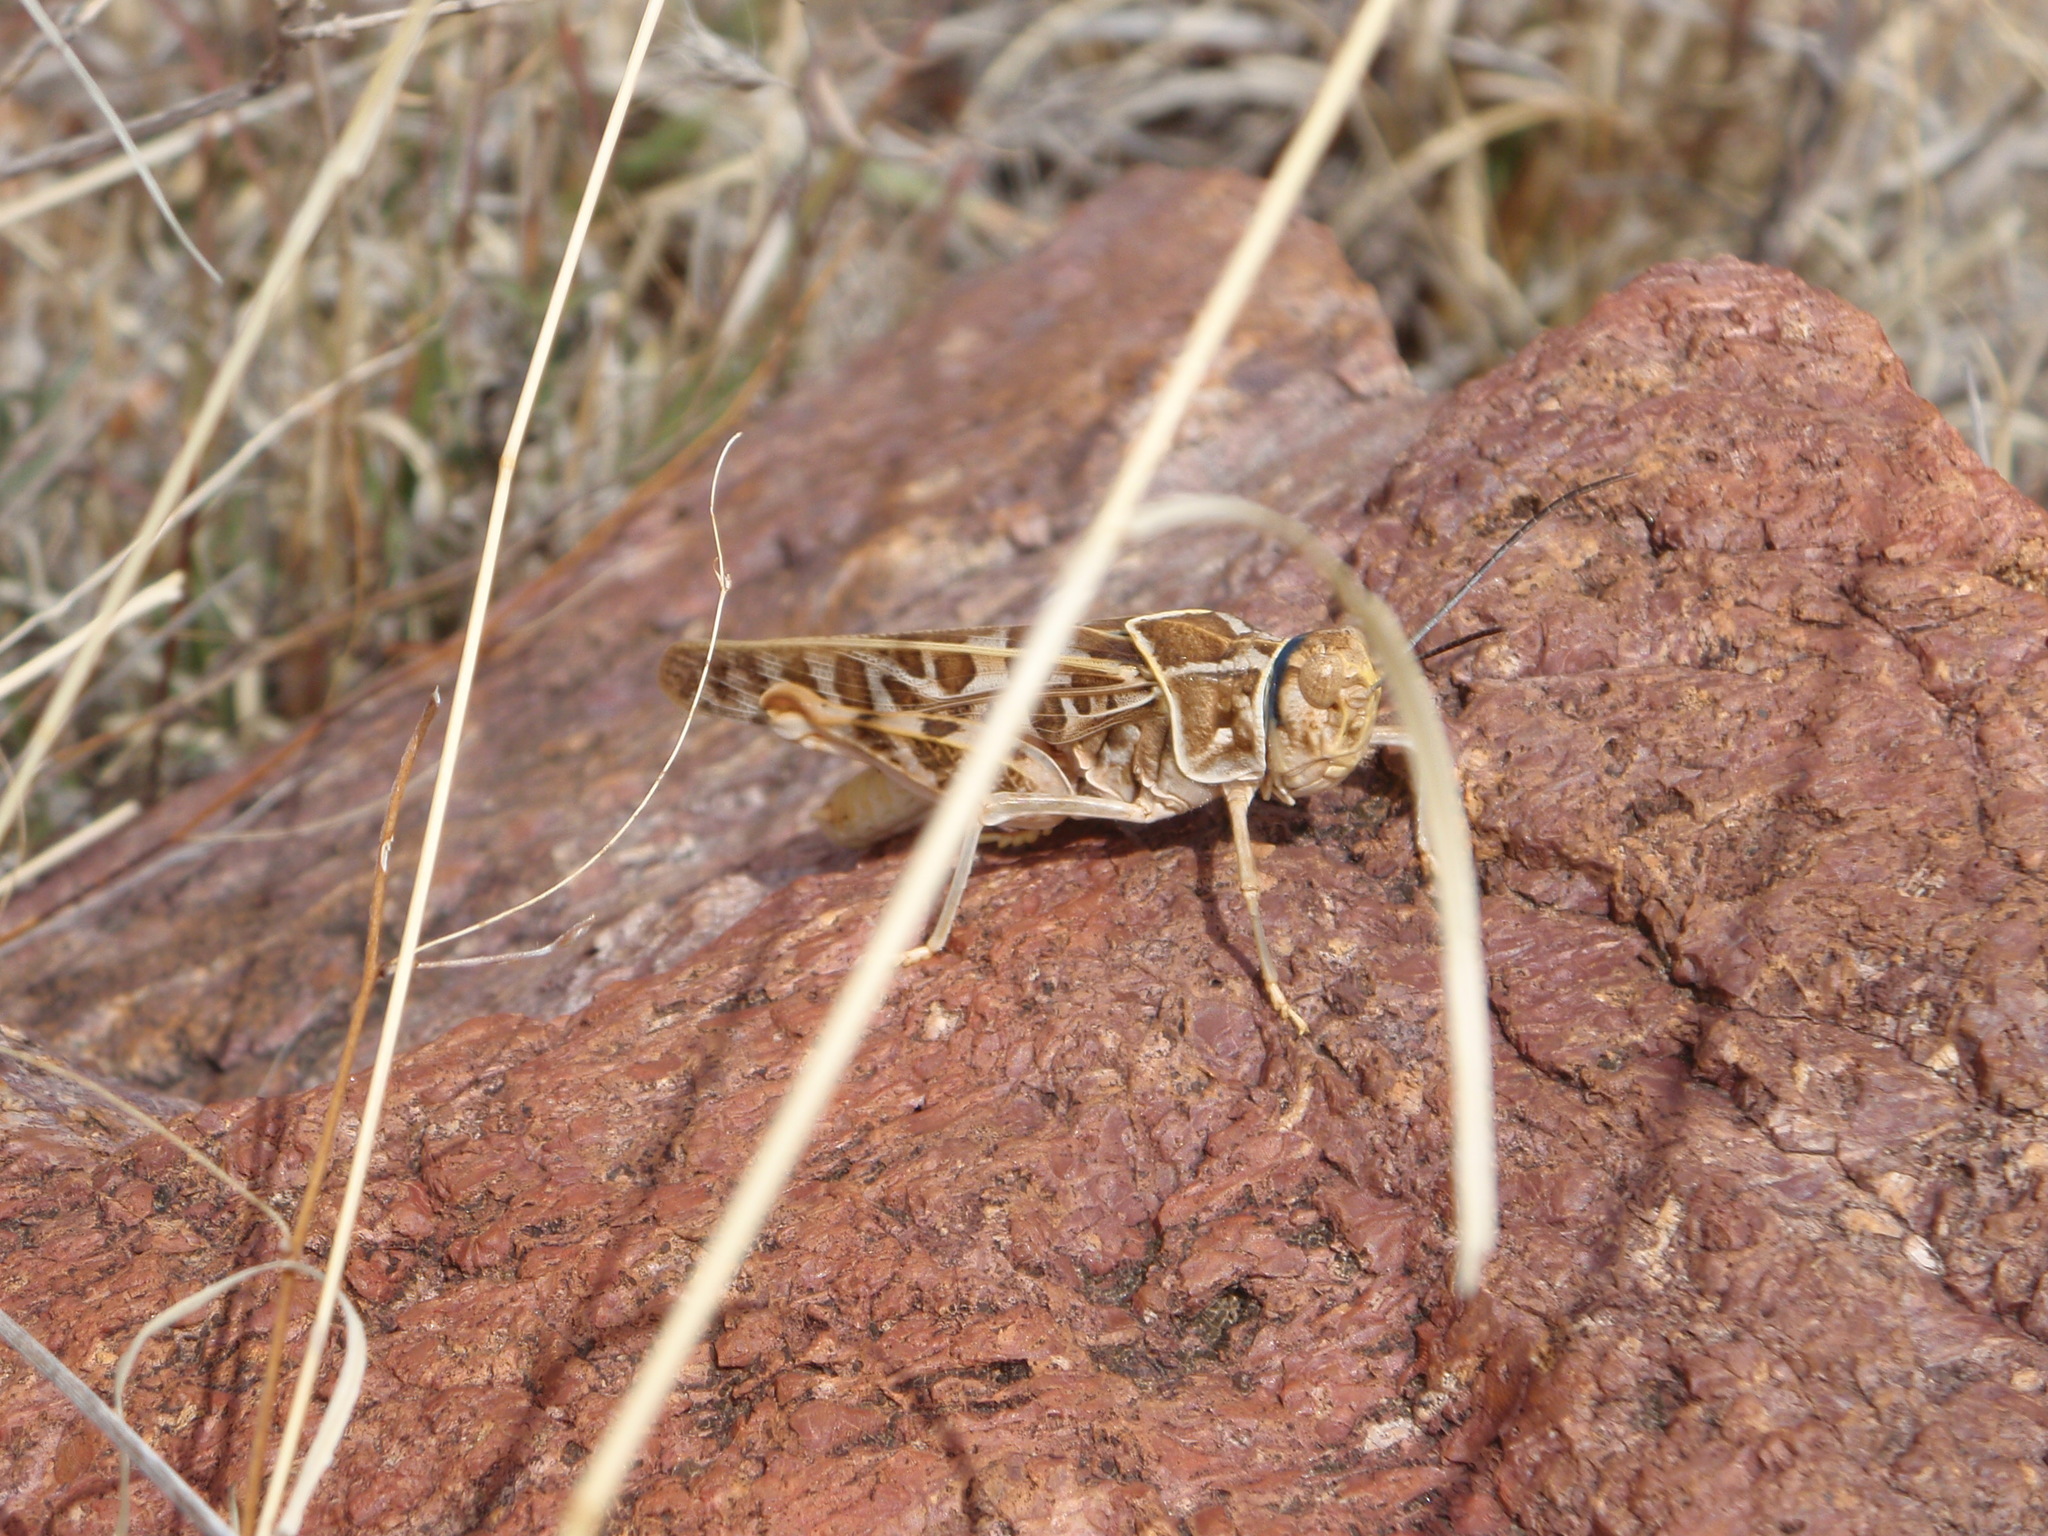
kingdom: Animalia
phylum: Arthropoda
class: Insecta
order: Orthoptera
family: Acrididae
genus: Xanthippus
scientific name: Xanthippus corallipes
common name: Redshanked grasshopper
